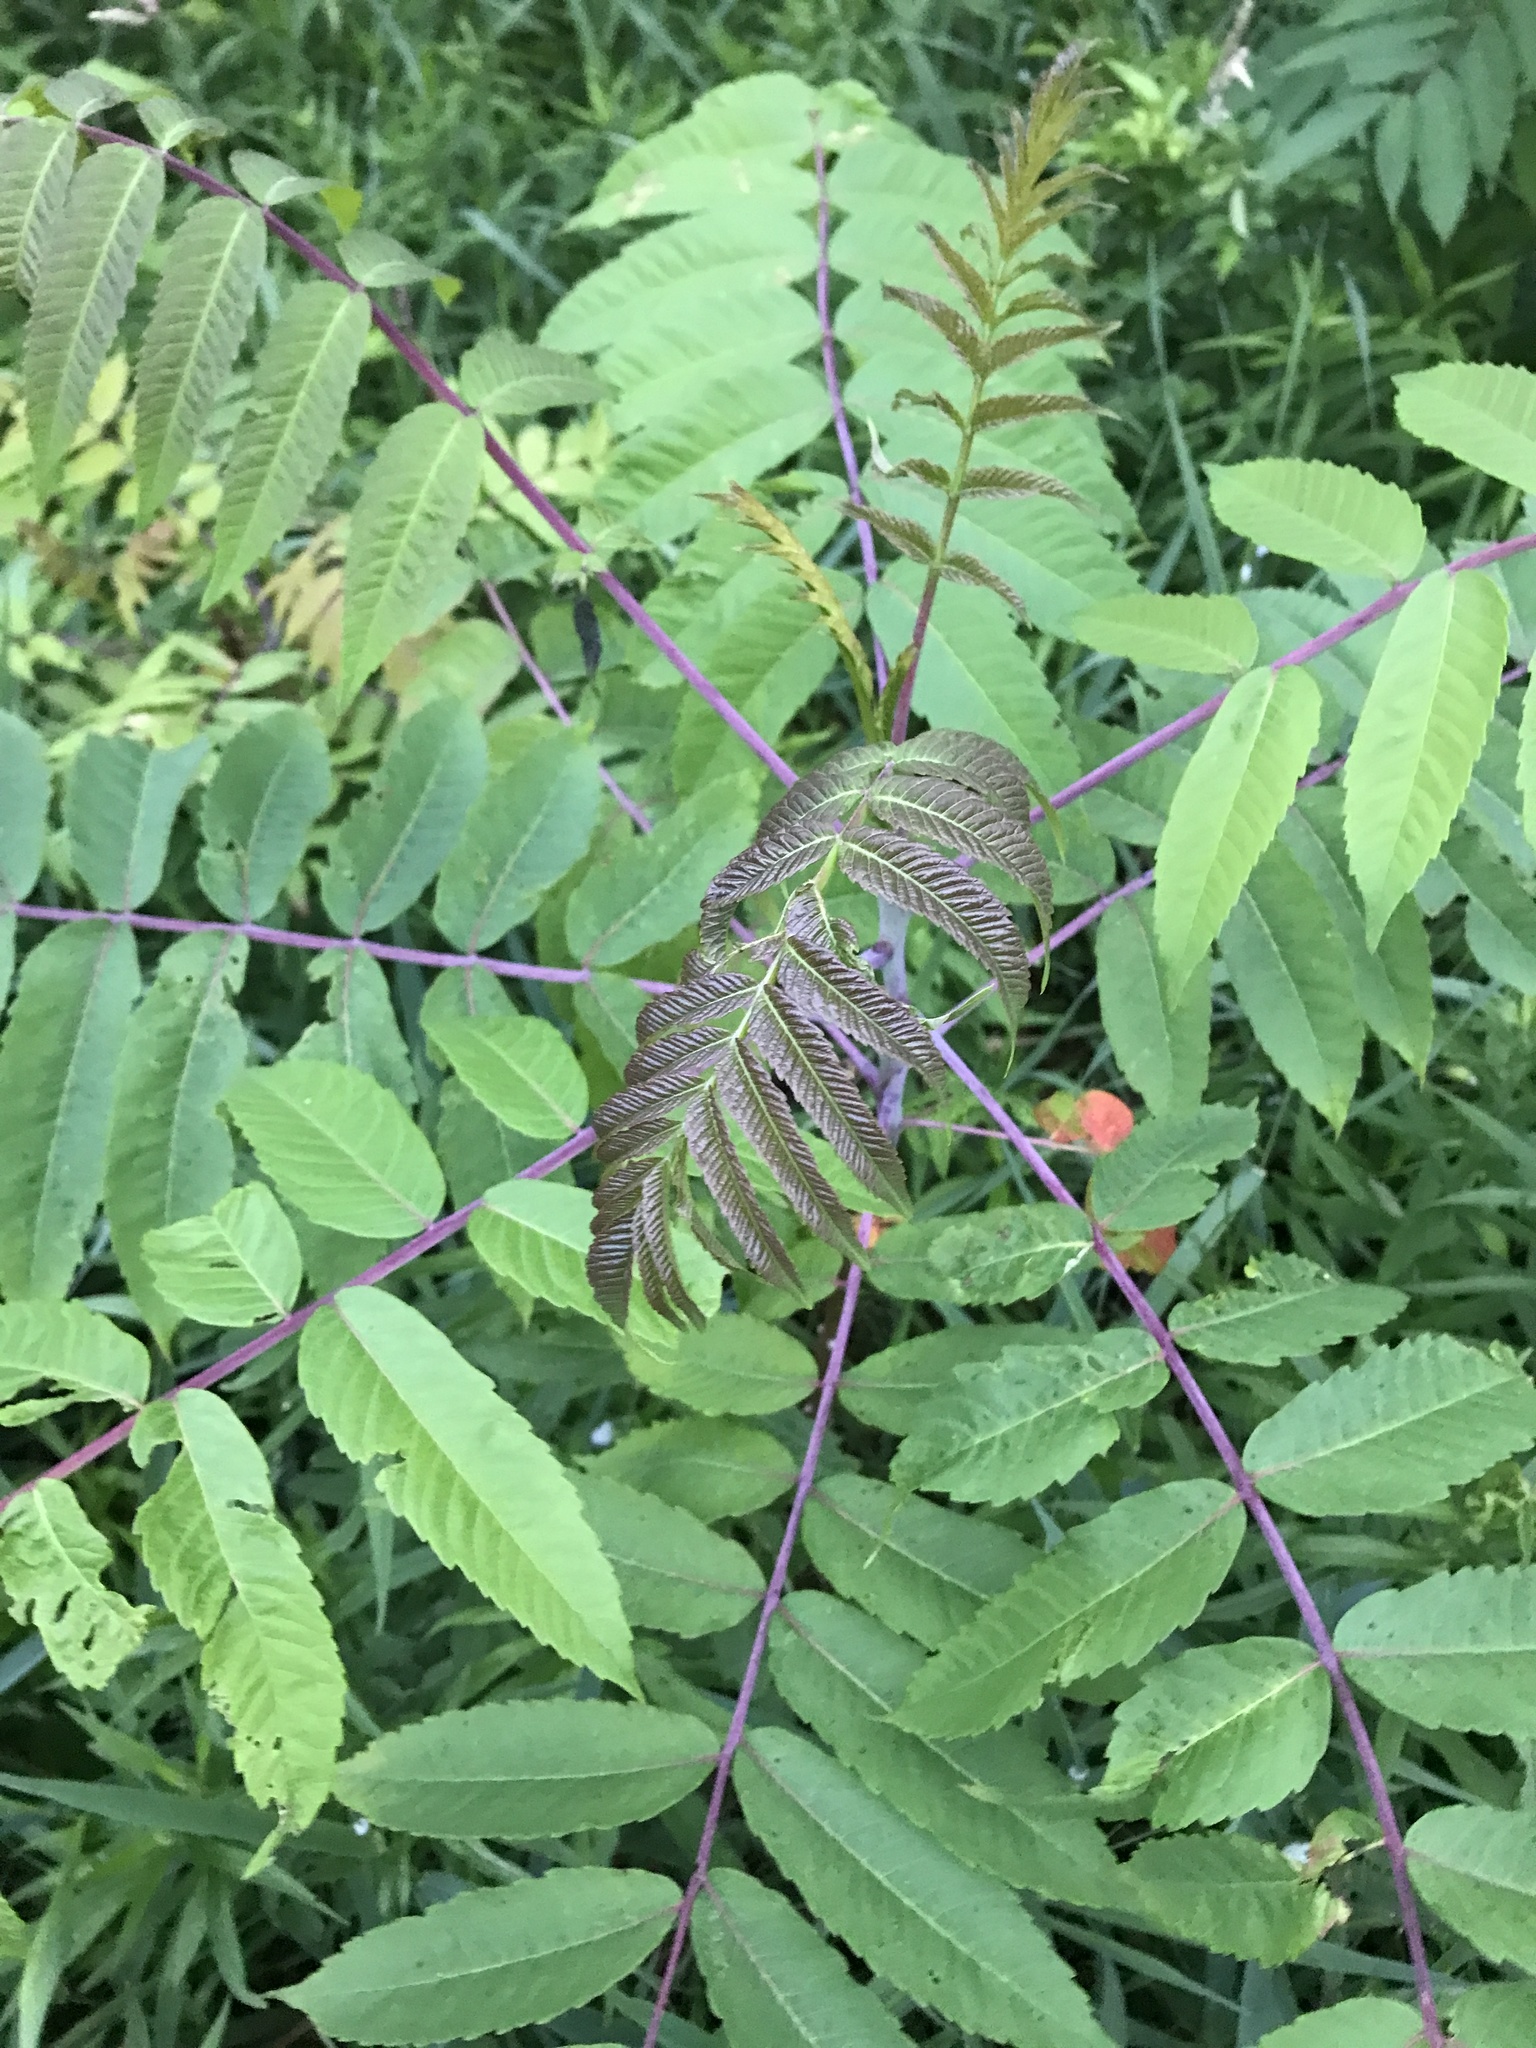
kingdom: Plantae
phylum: Tracheophyta
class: Magnoliopsida
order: Sapindales
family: Simaroubaceae
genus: Ailanthus
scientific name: Ailanthus altissima
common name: Tree-of-heaven
